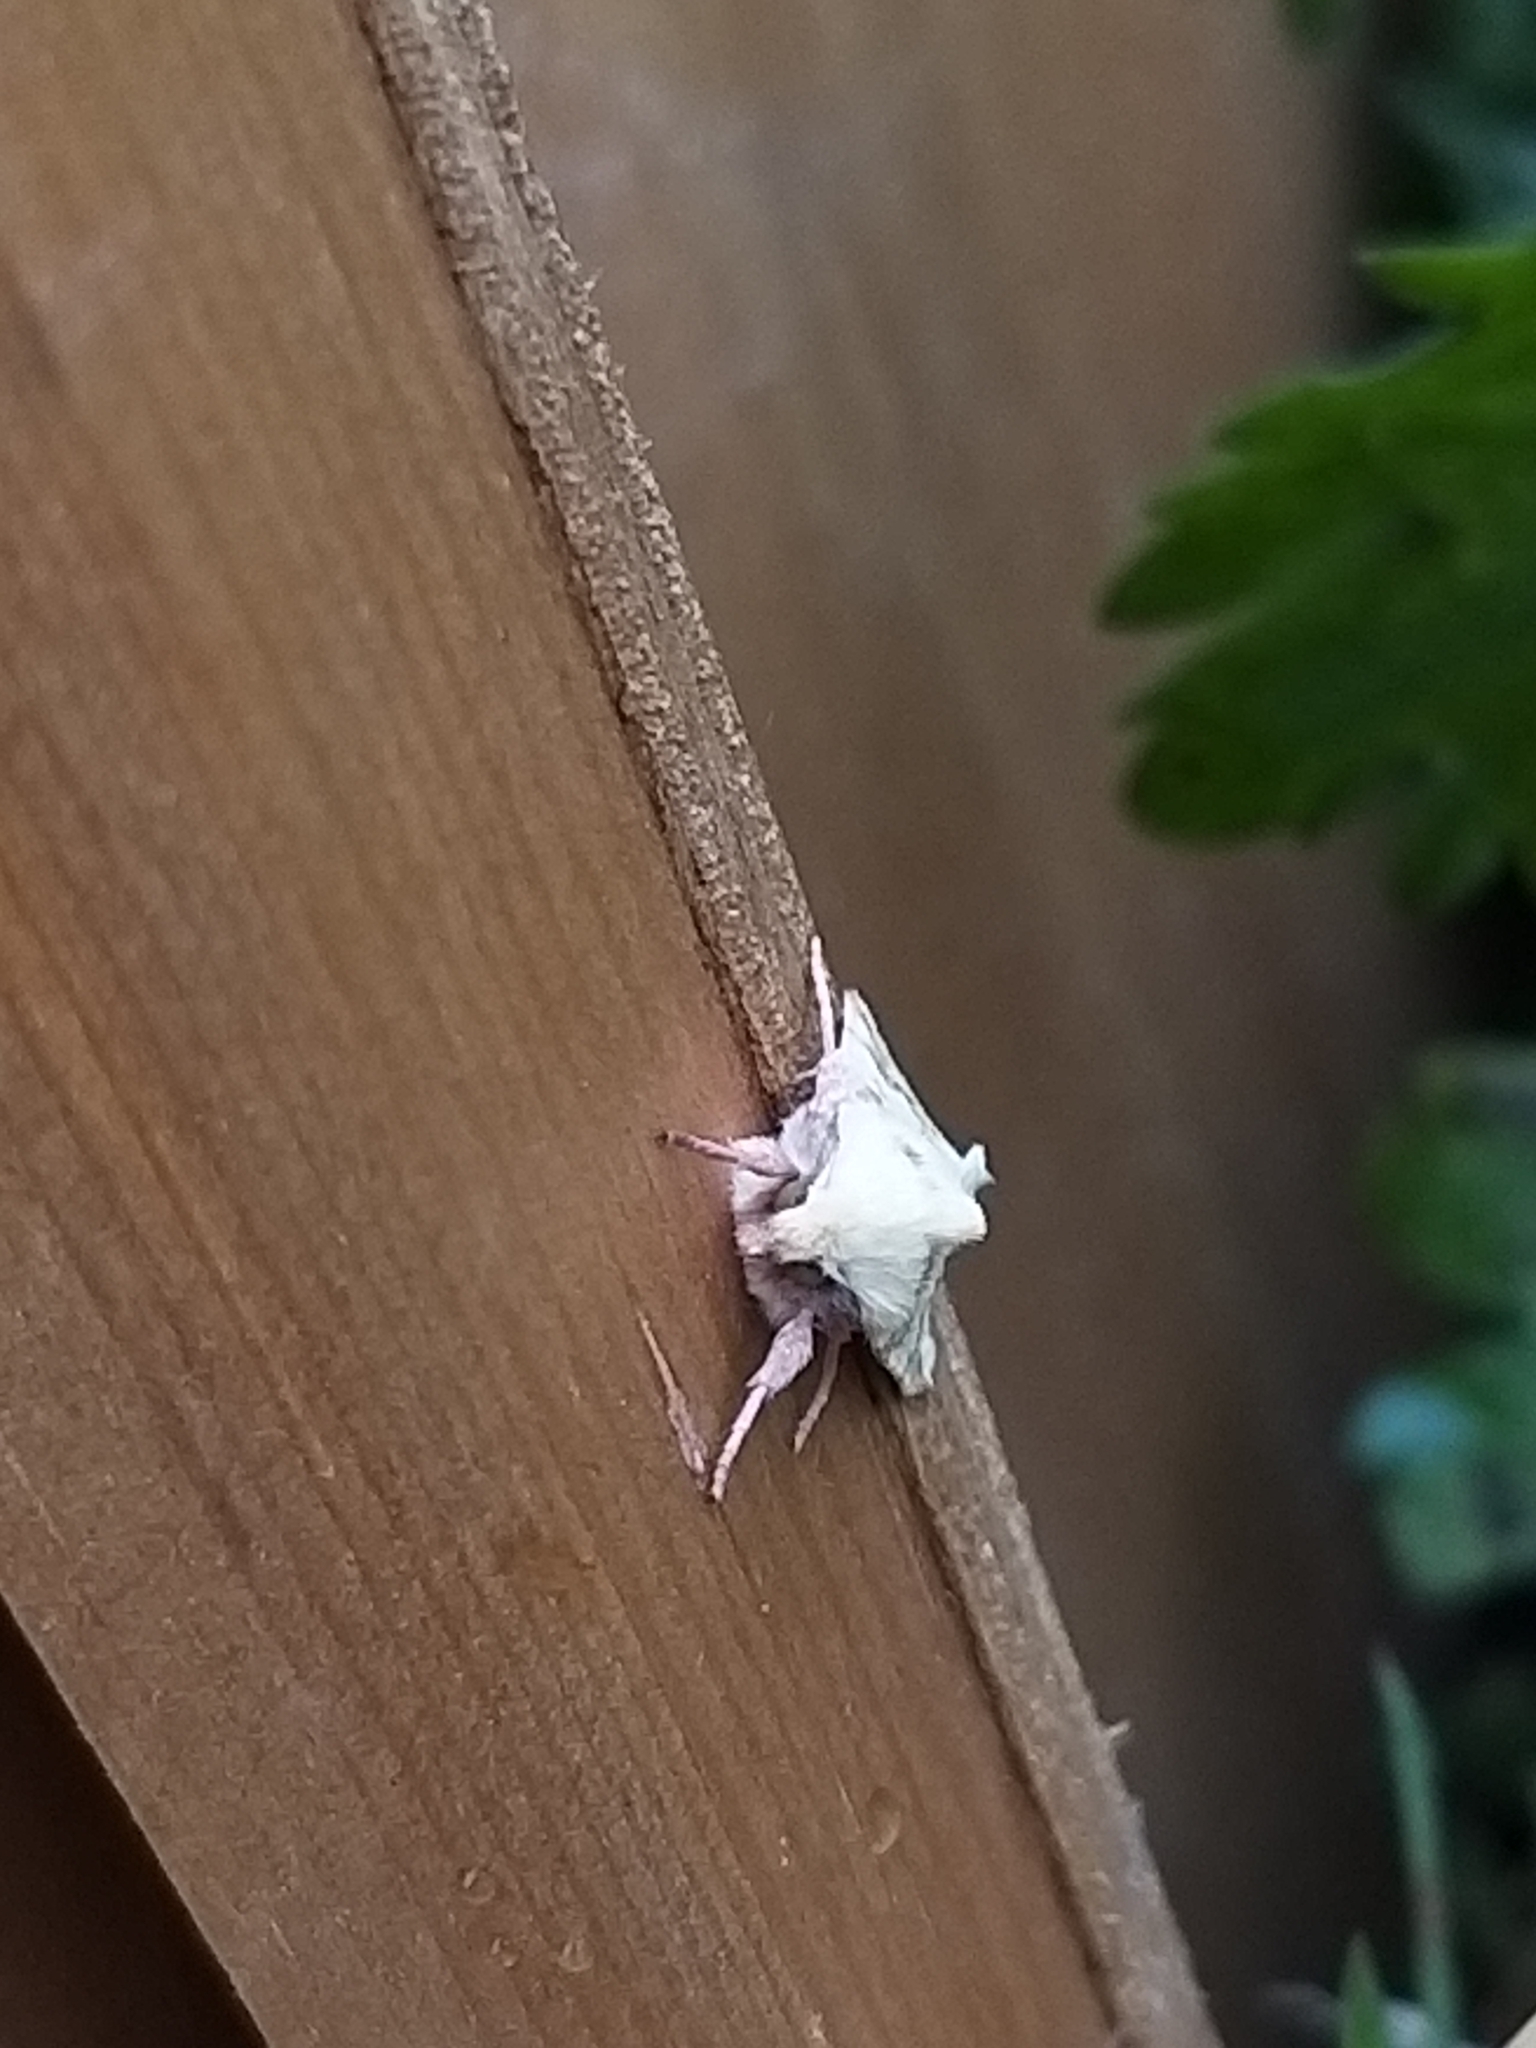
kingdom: Animalia
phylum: Arthropoda
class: Insecta
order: Lepidoptera
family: Noctuidae
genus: Xanthia
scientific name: Xanthia icteritia
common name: The sallow
